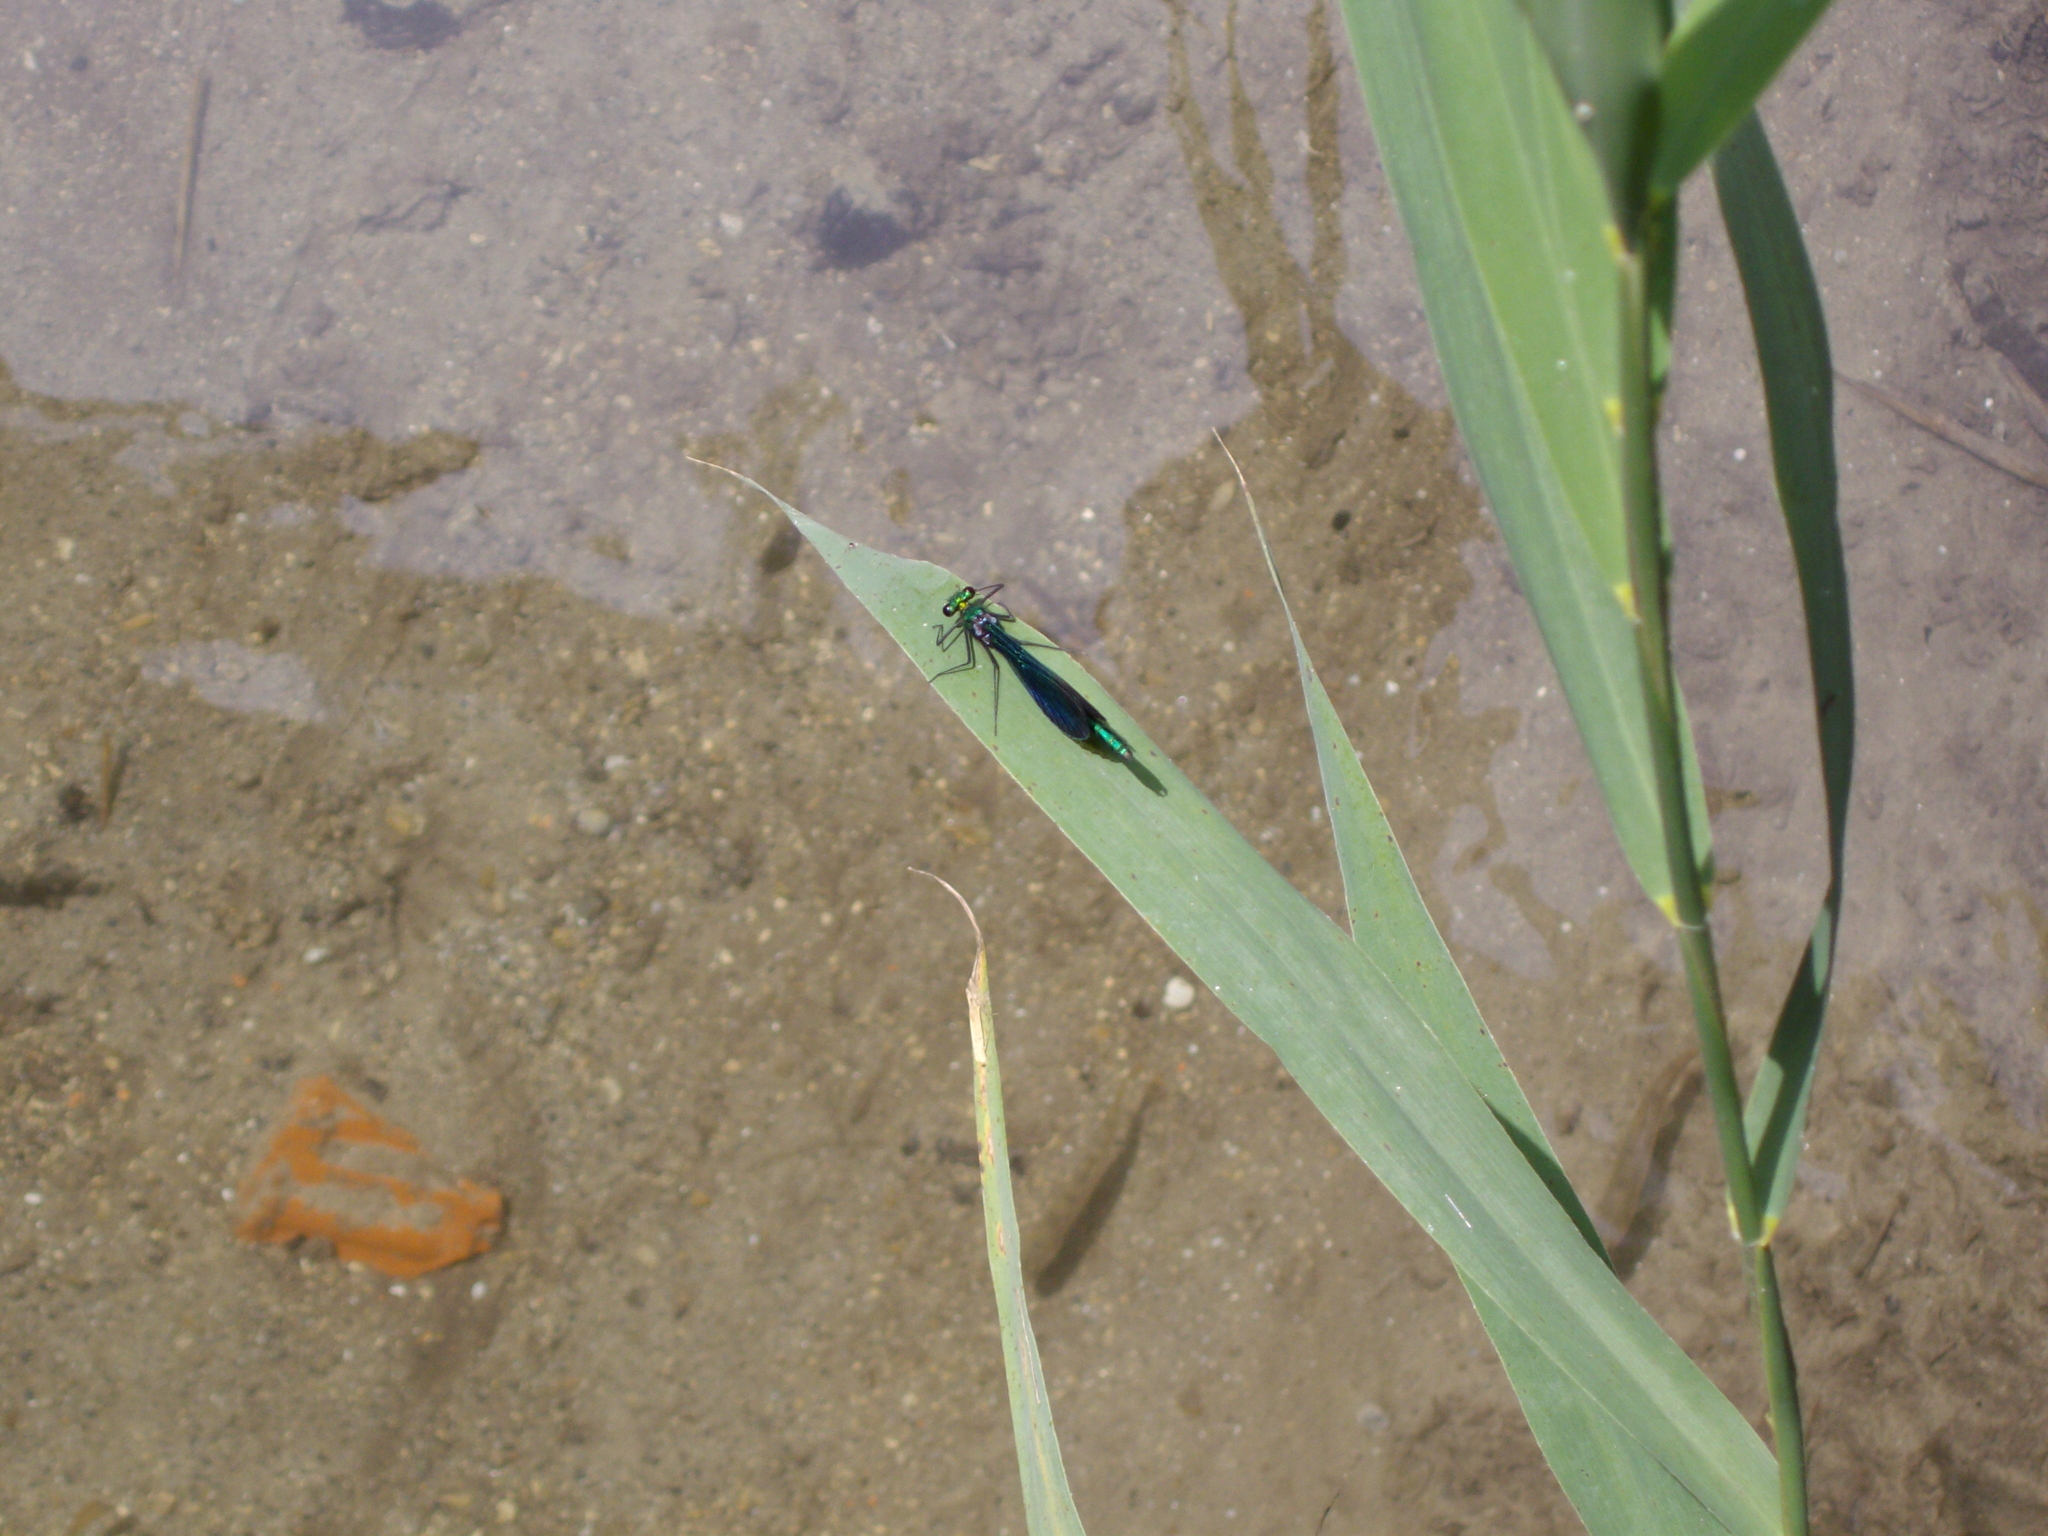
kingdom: Animalia
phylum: Arthropoda
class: Insecta
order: Odonata
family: Calopterygidae
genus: Calopteryx
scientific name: Calopteryx virgo
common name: Beautiful demoiselle
